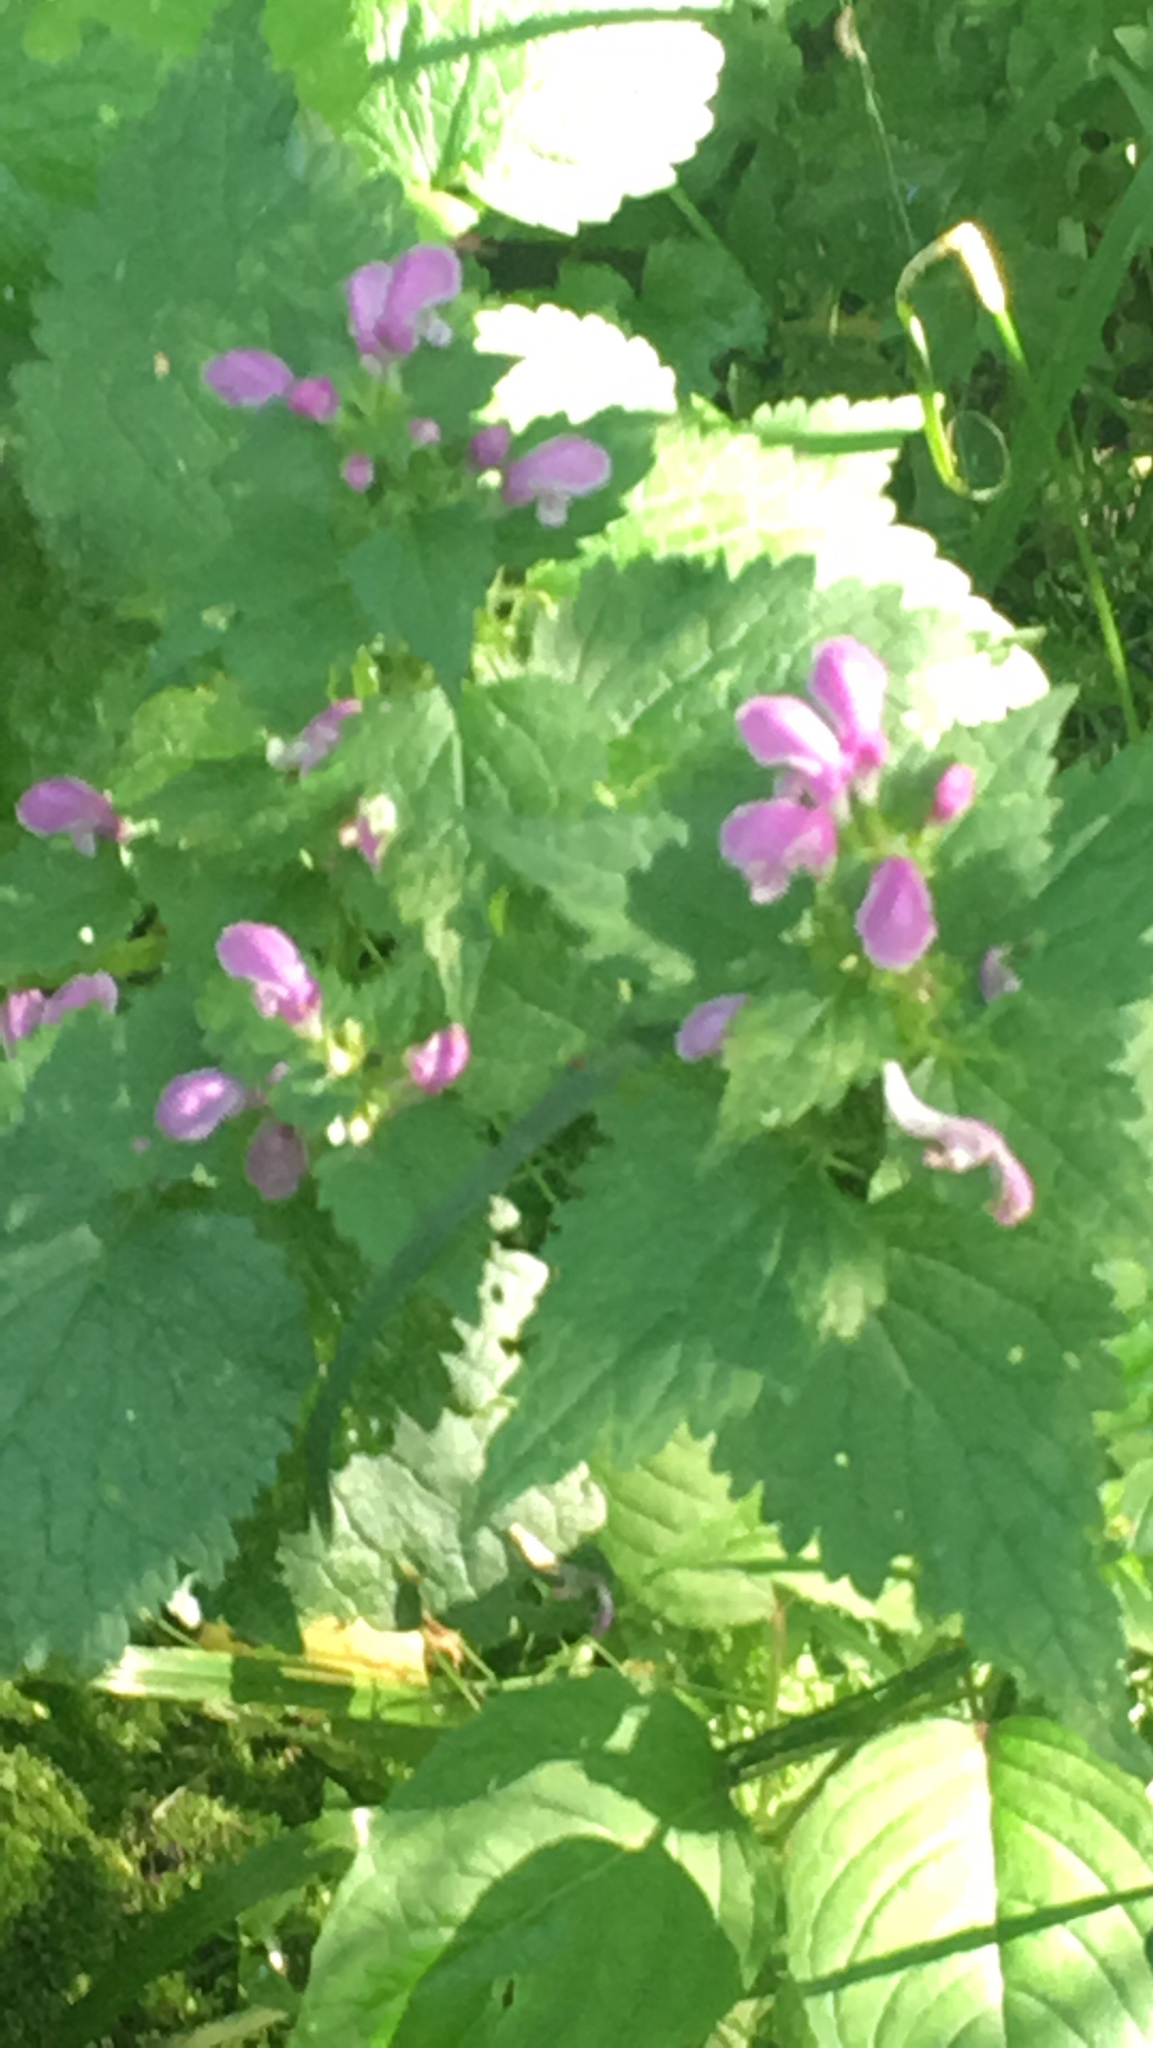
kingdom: Plantae
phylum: Tracheophyta
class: Magnoliopsida
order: Lamiales
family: Lamiaceae
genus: Lamium
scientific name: Lamium maculatum
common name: Spotted dead-nettle
